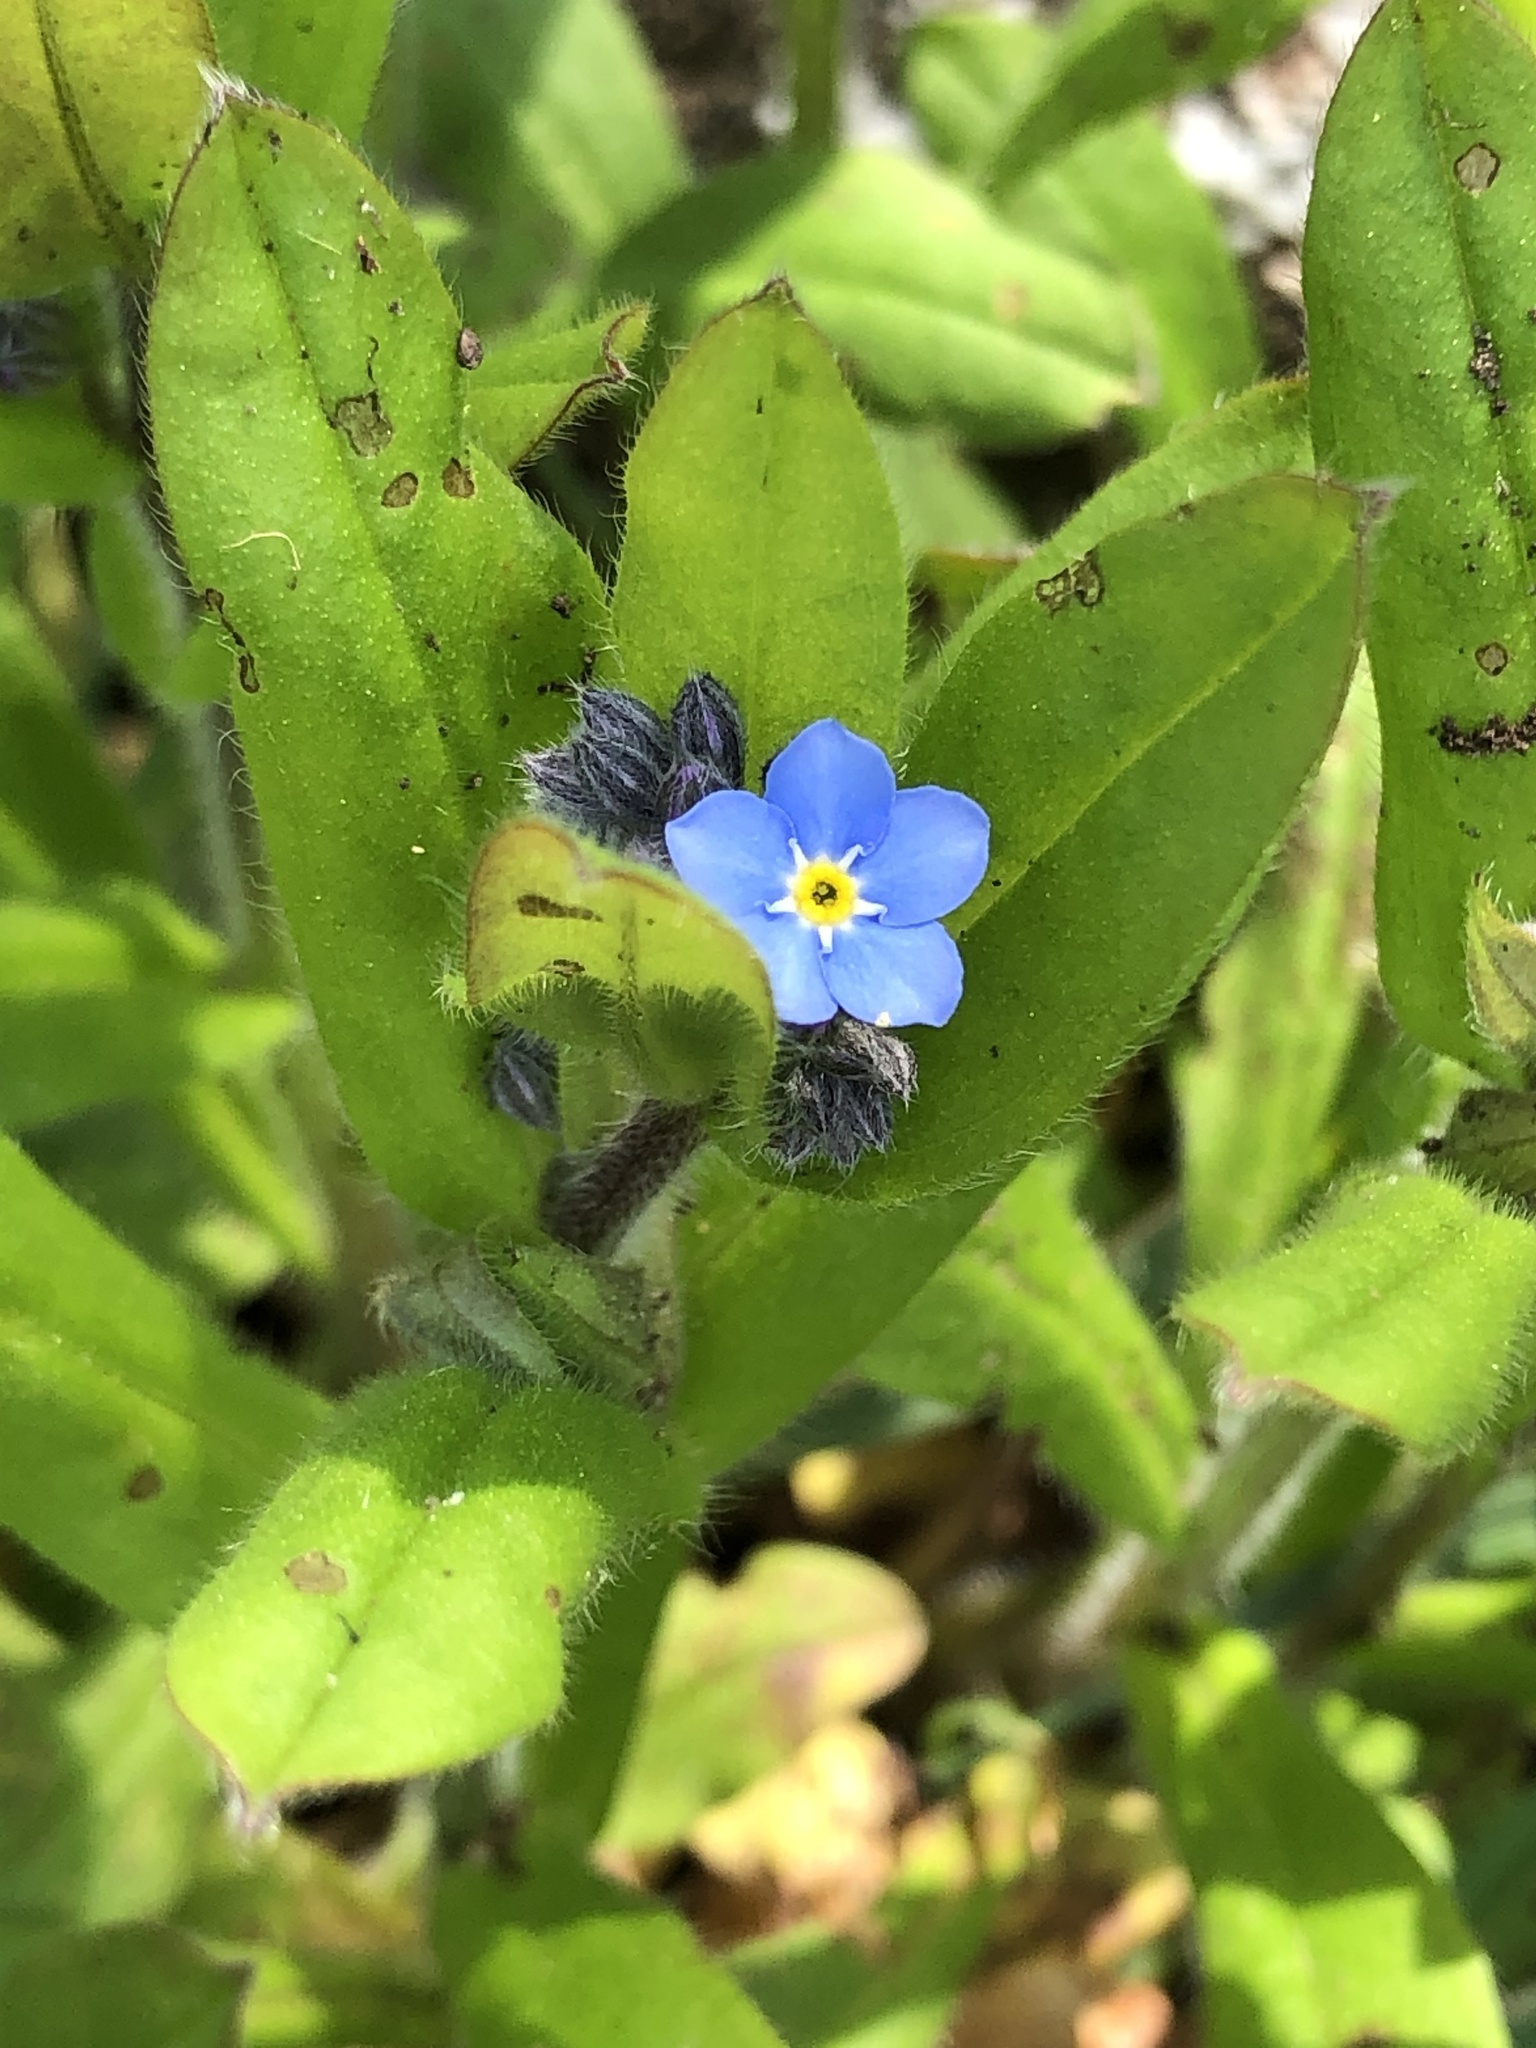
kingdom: Plantae
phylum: Tracheophyta
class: Magnoliopsida
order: Boraginales
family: Boraginaceae
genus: Myosotis
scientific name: Myosotis arvensis
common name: Field forget-me-not
